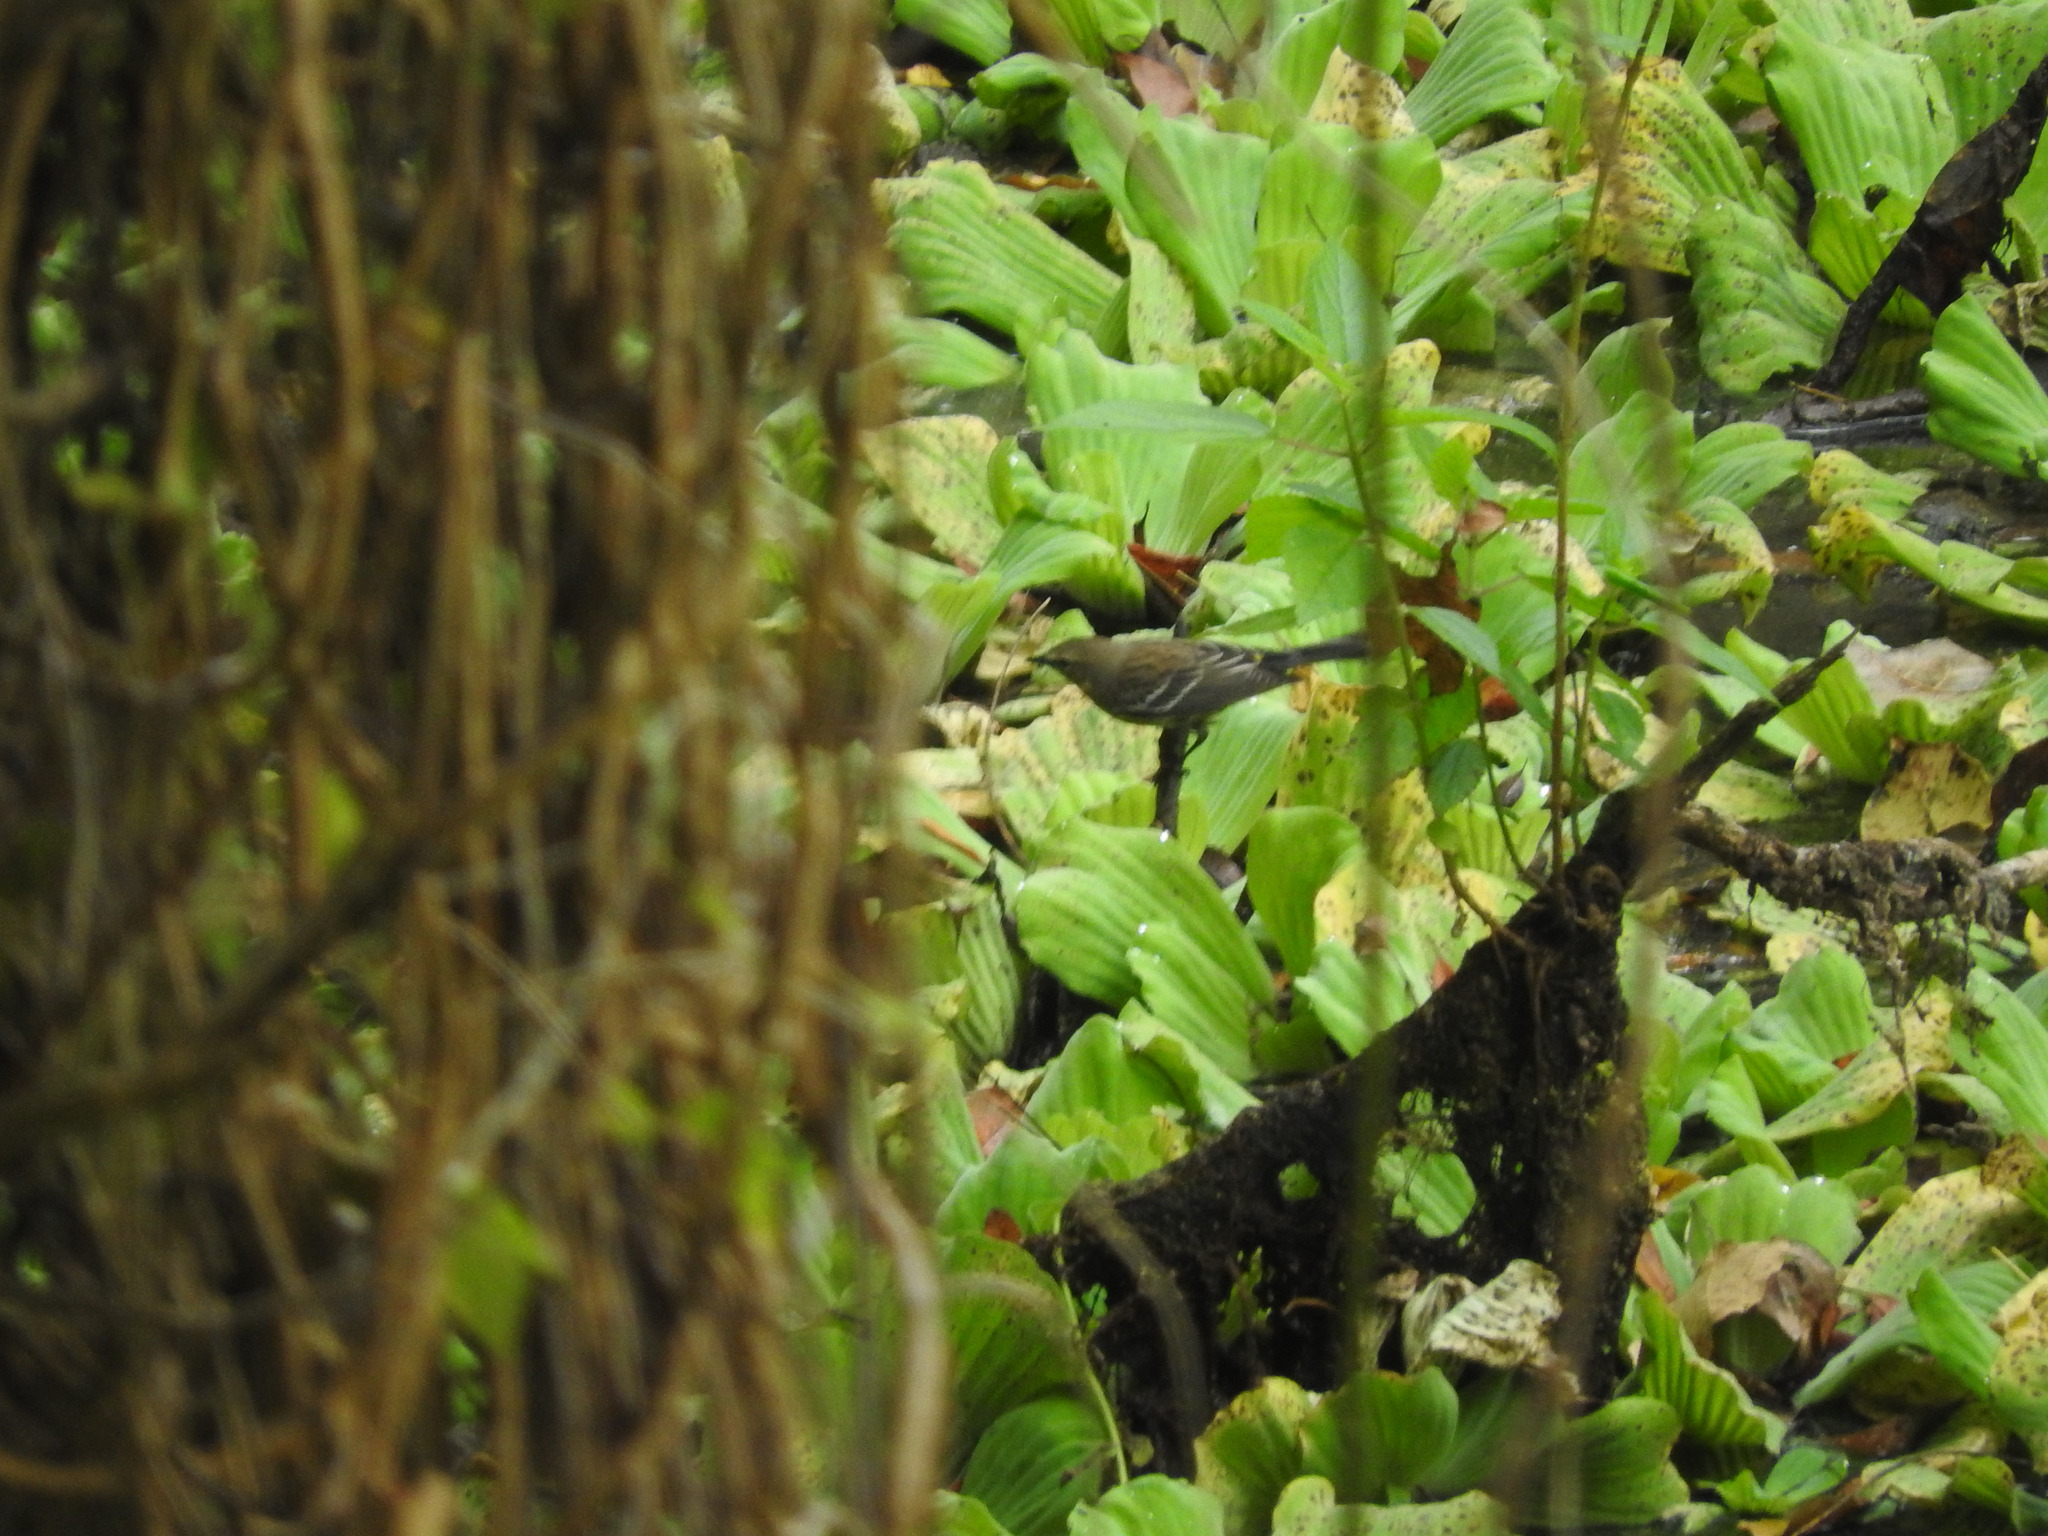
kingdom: Animalia
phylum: Chordata
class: Aves
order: Passeriformes
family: Parulidae
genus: Setophaga
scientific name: Setophaga coronata
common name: Myrtle warbler
